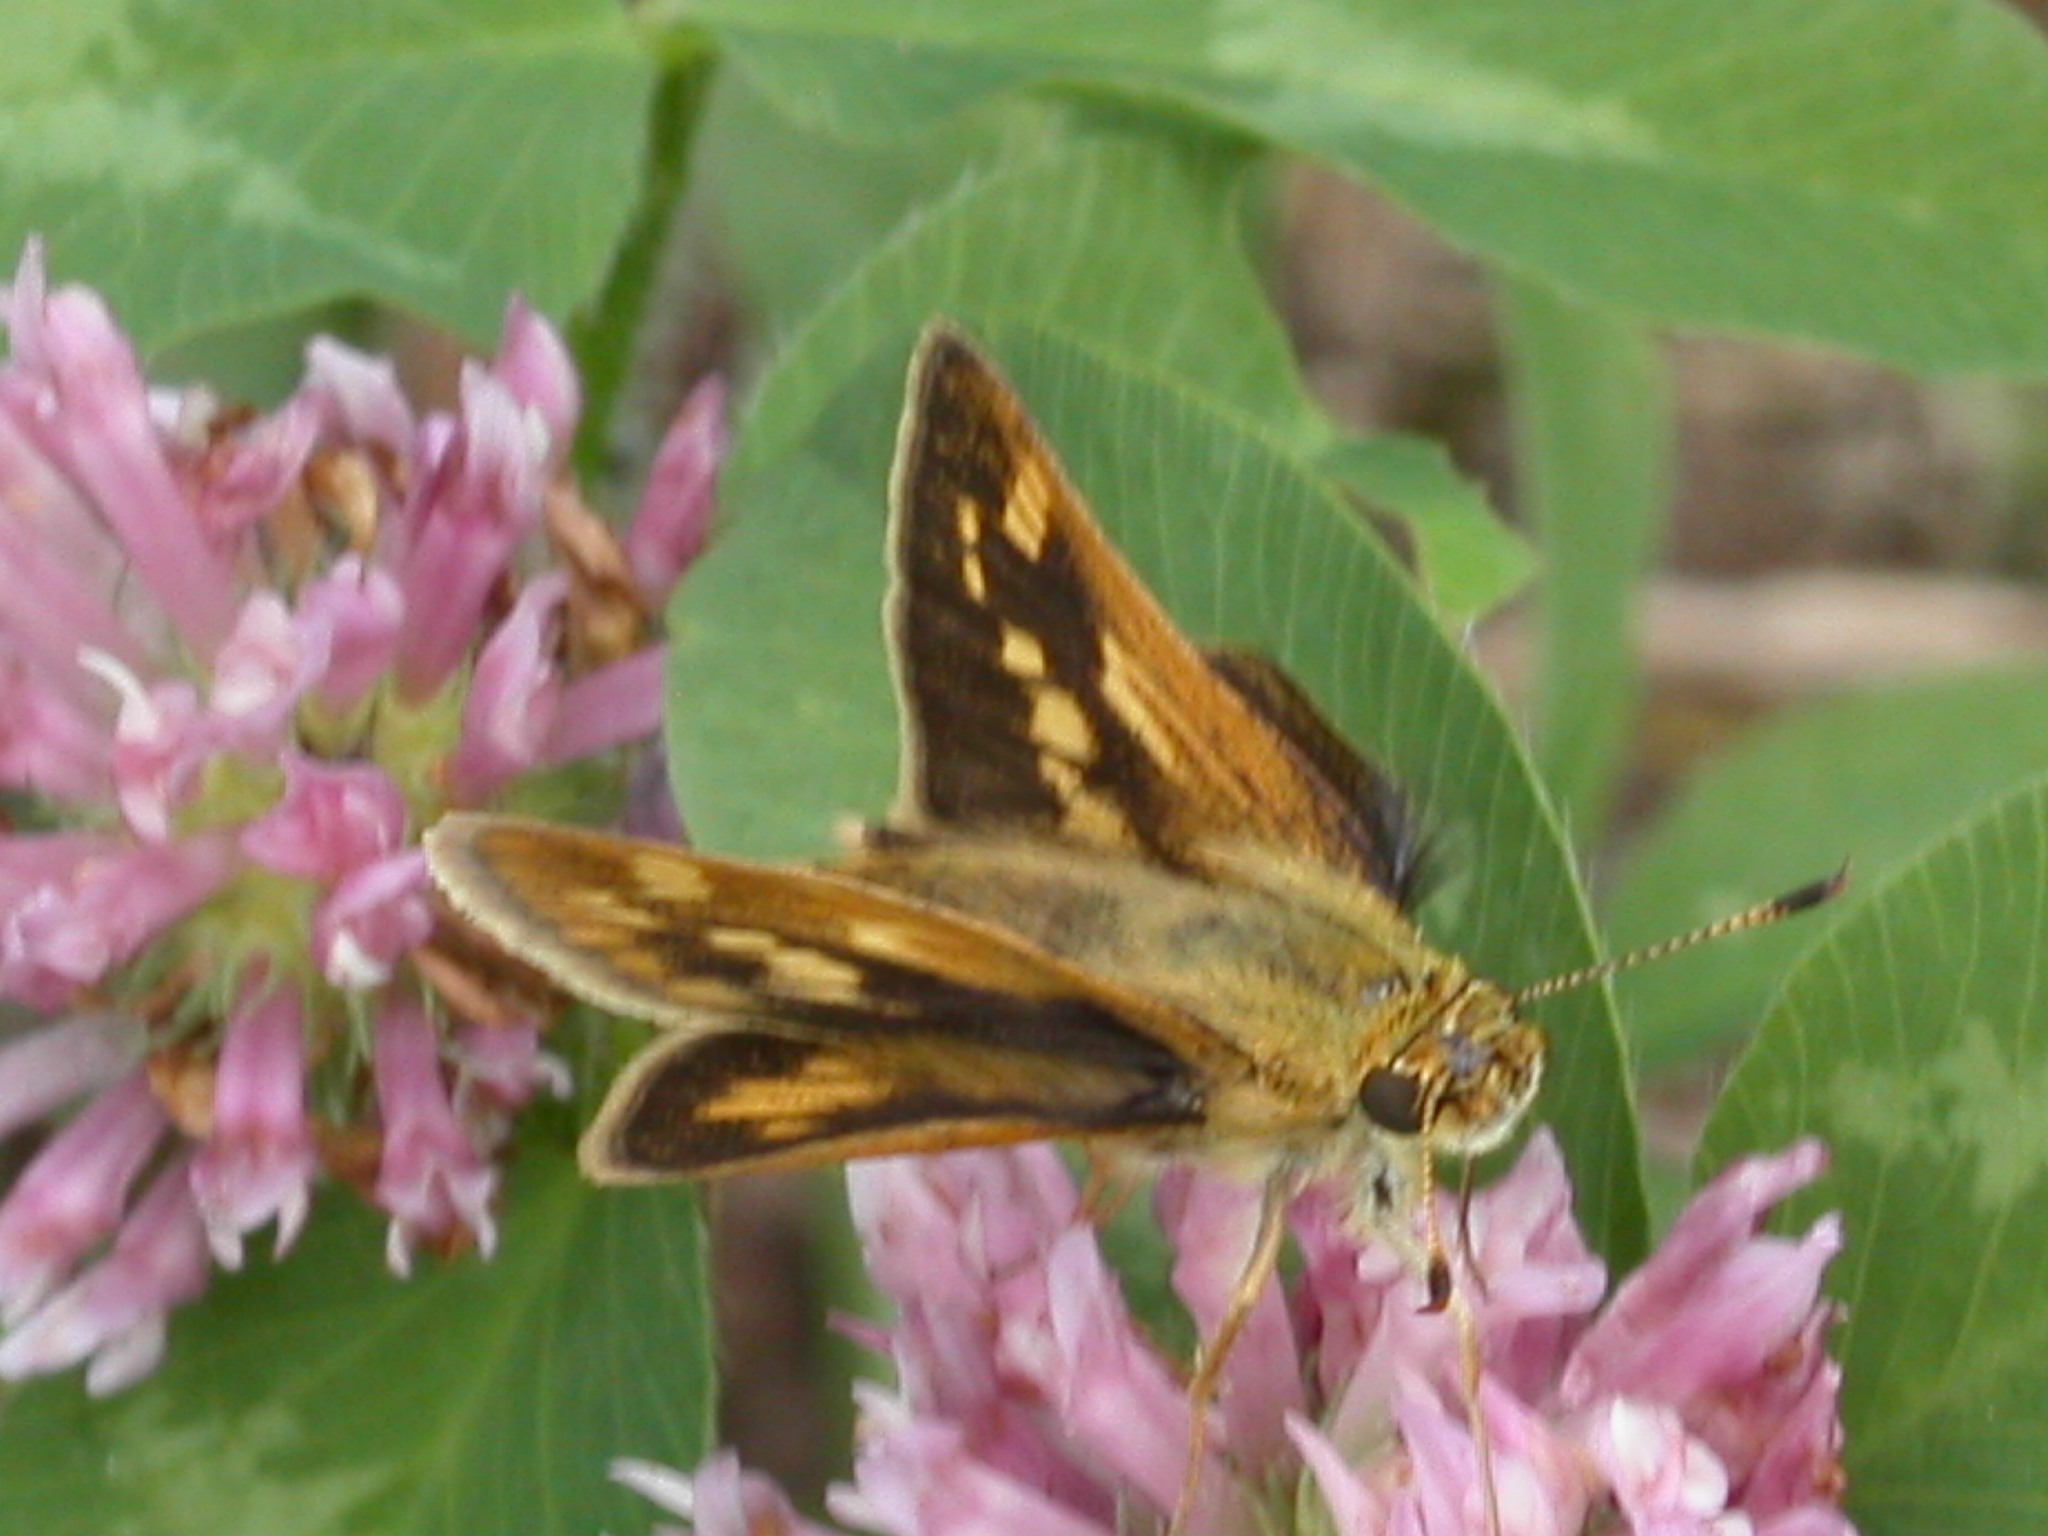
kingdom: Animalia
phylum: Arthropoda
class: Insecta
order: Lepidoptera
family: Hesperiidae
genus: Polites
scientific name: Polites coras
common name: Peck's skipper
